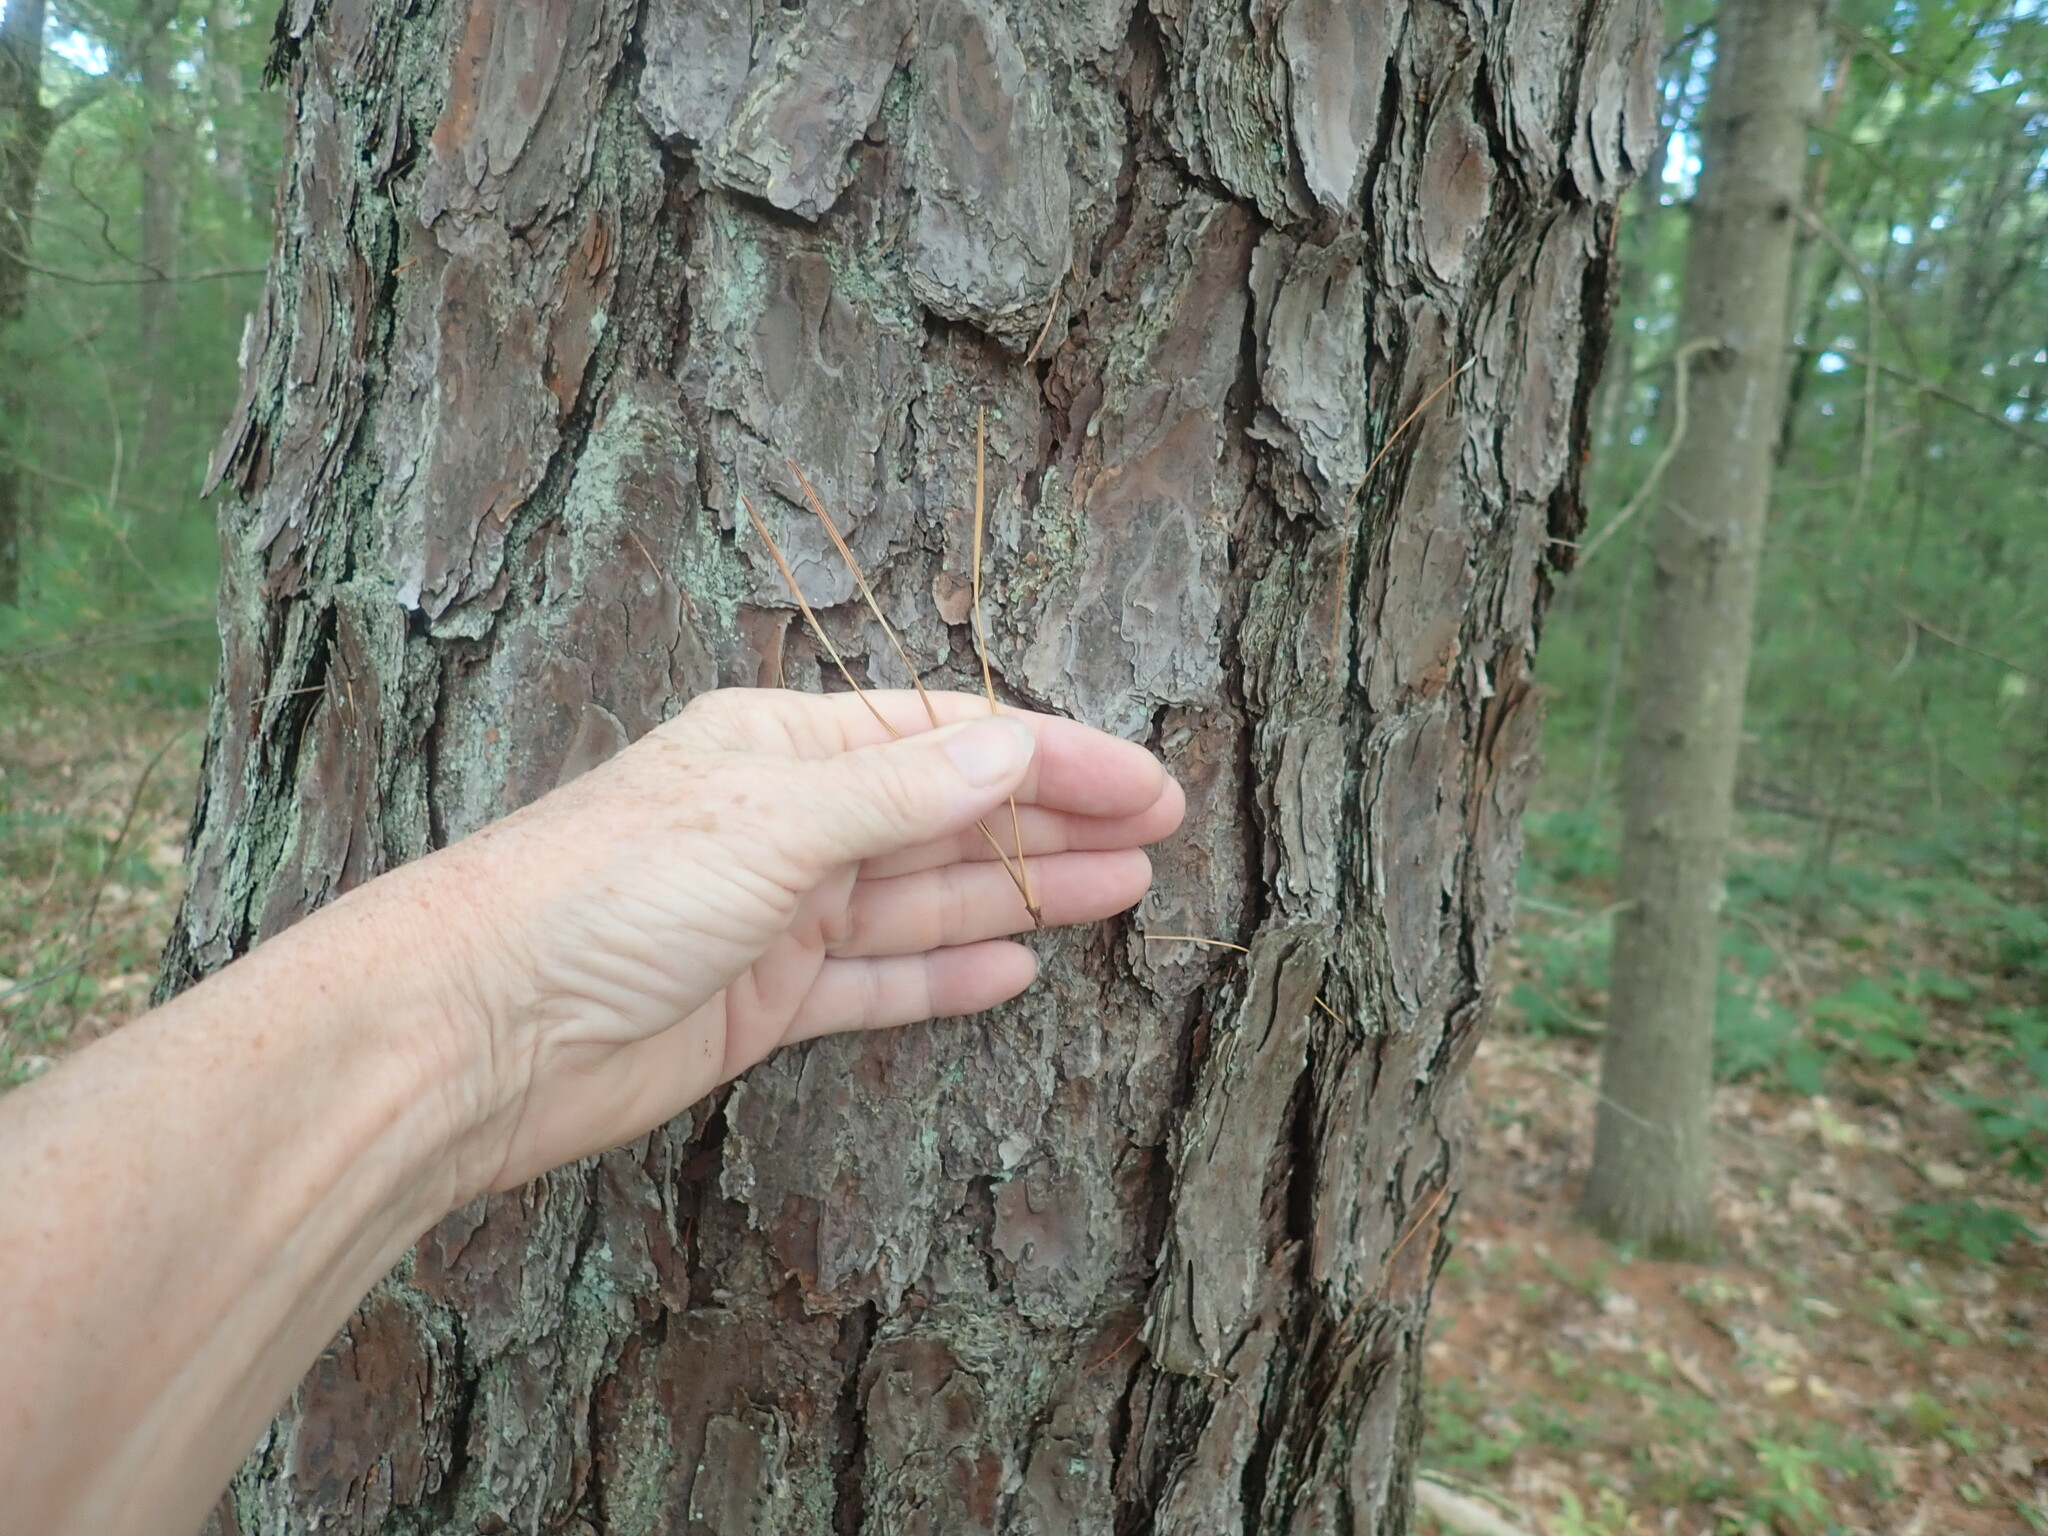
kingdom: Plantae
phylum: Tracheophyta
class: Pinopsida
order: Pinales
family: Pinaceae
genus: Pinus
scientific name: Pinus rigida
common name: Pitch pine
